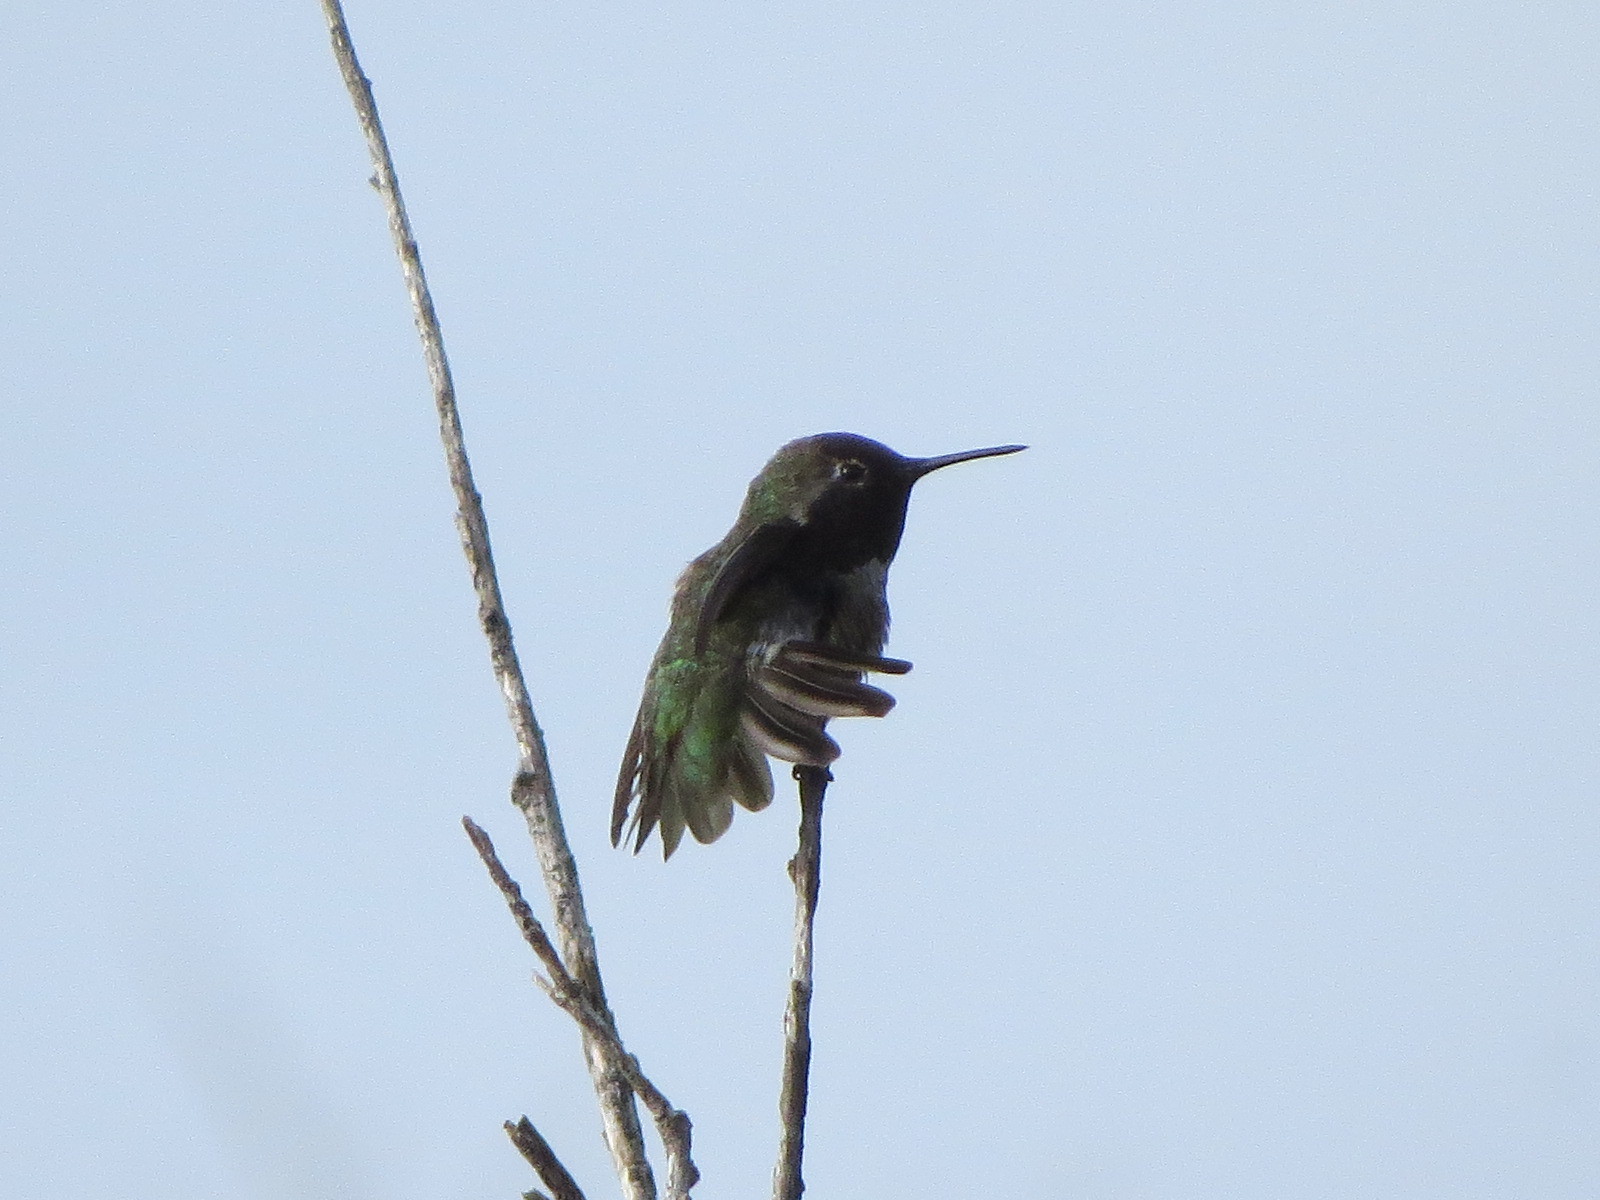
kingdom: Animalia
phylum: Chordata
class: Aves
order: Apodiformes
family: Trochilidae
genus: Calypte
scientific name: Calypte anna
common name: Anna's hummingbird
